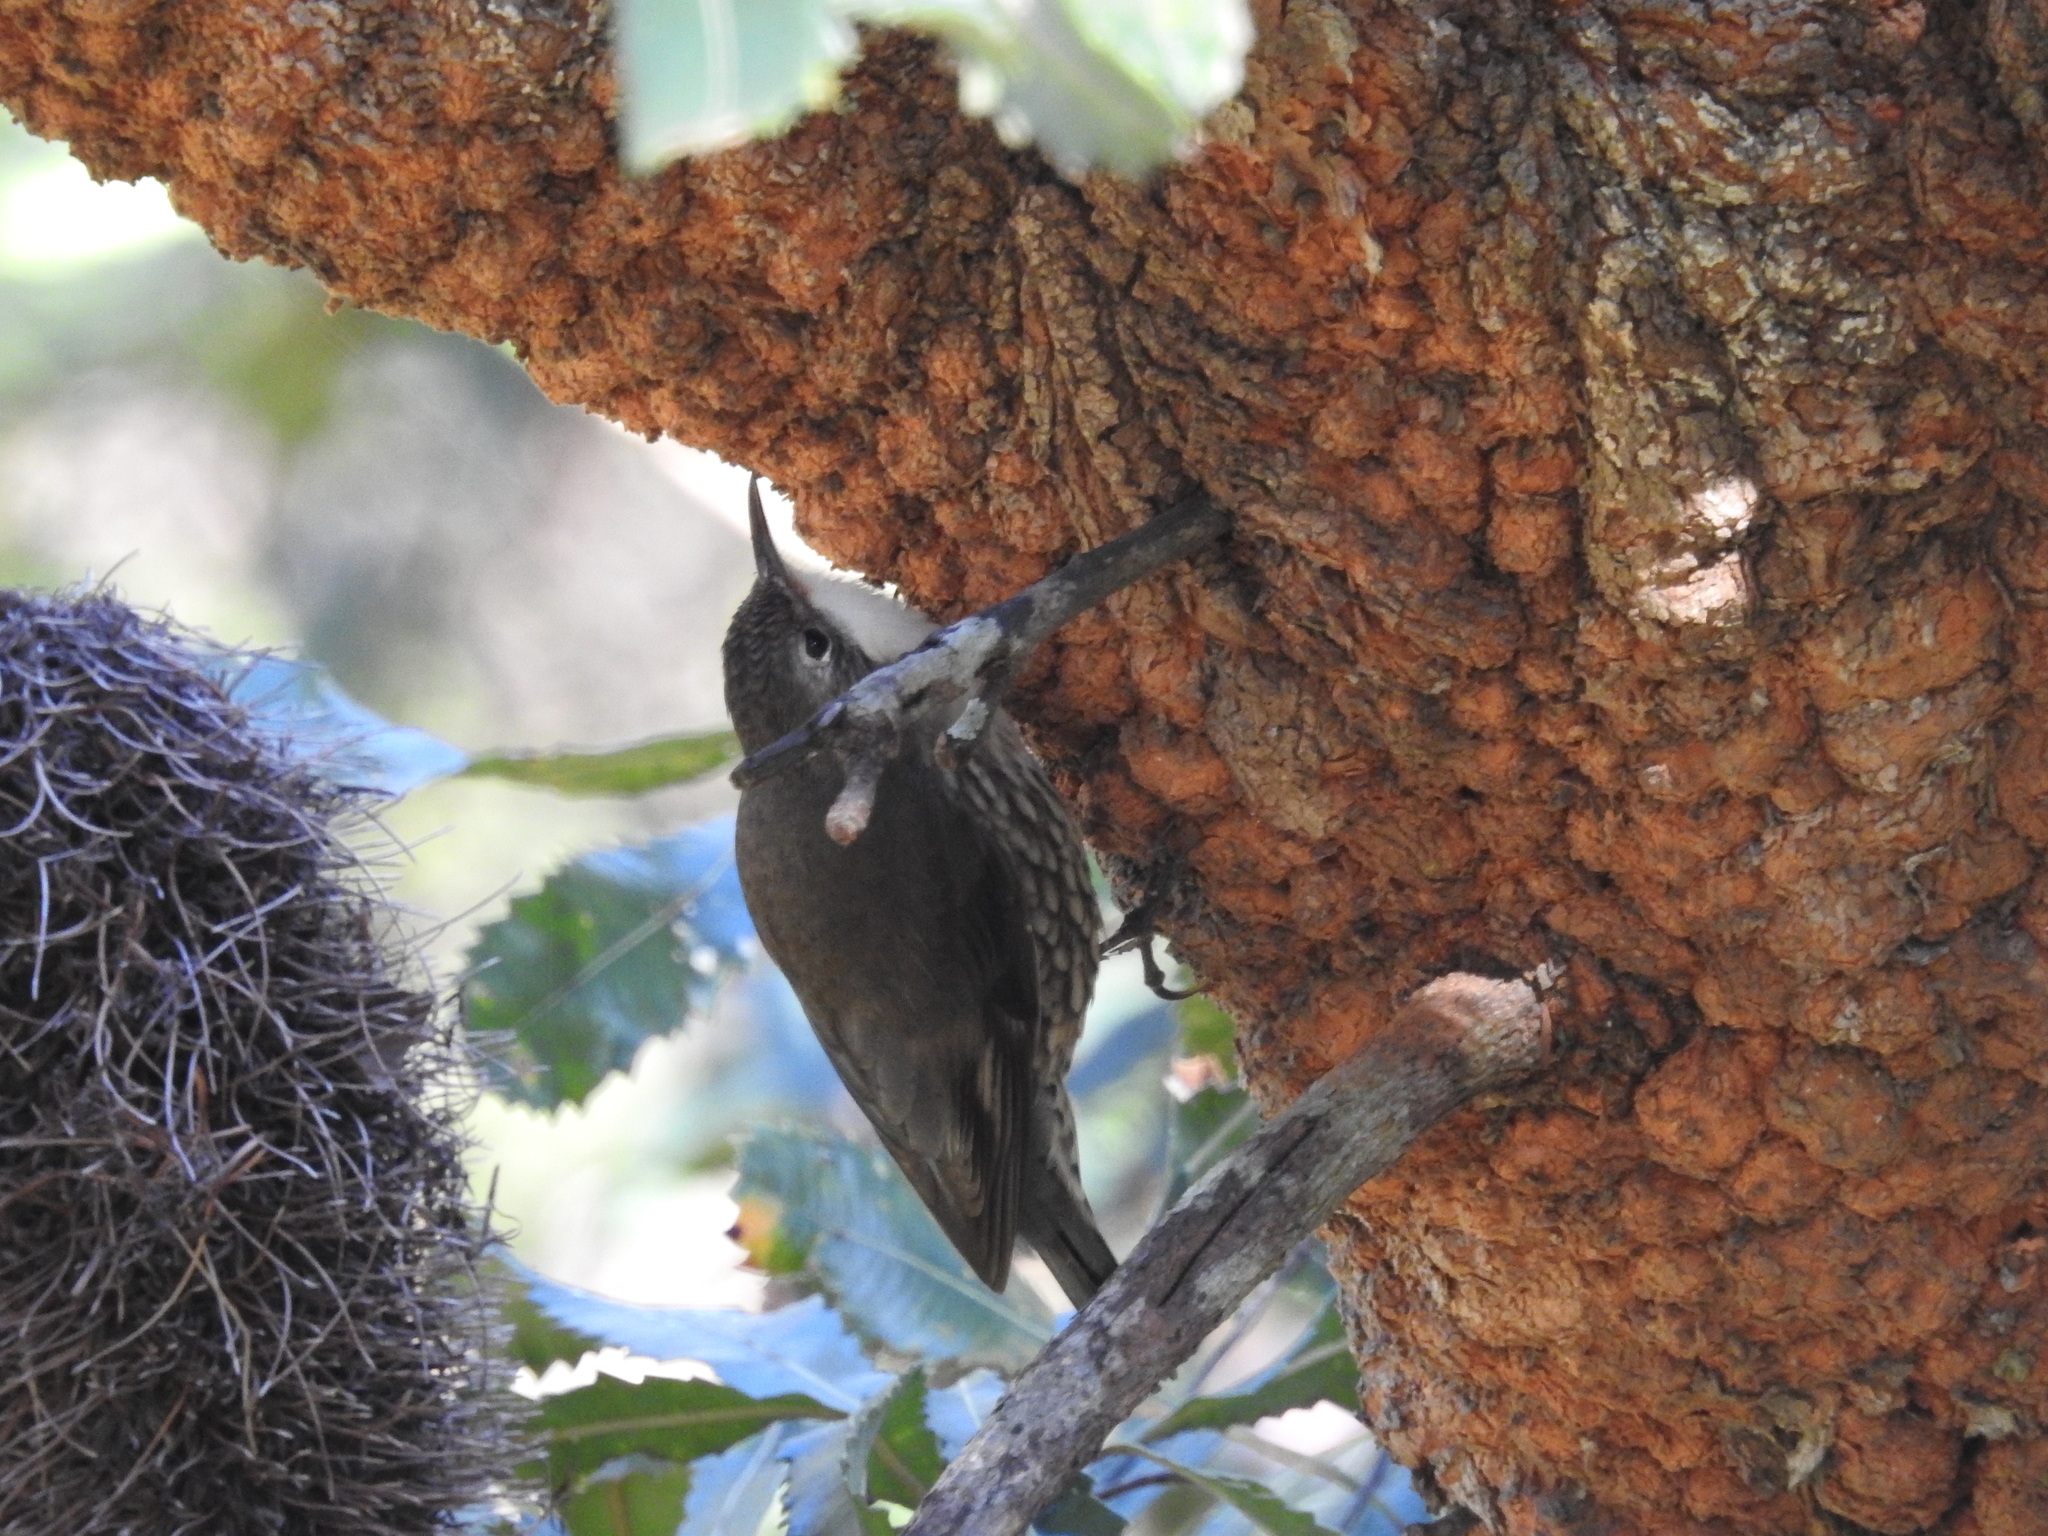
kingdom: Animalia
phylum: Chordata
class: Aves
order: Passeriformes
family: Climacteridae
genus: Cormobates
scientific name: Cormobates leucophaea
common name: White-throated treecreeper
